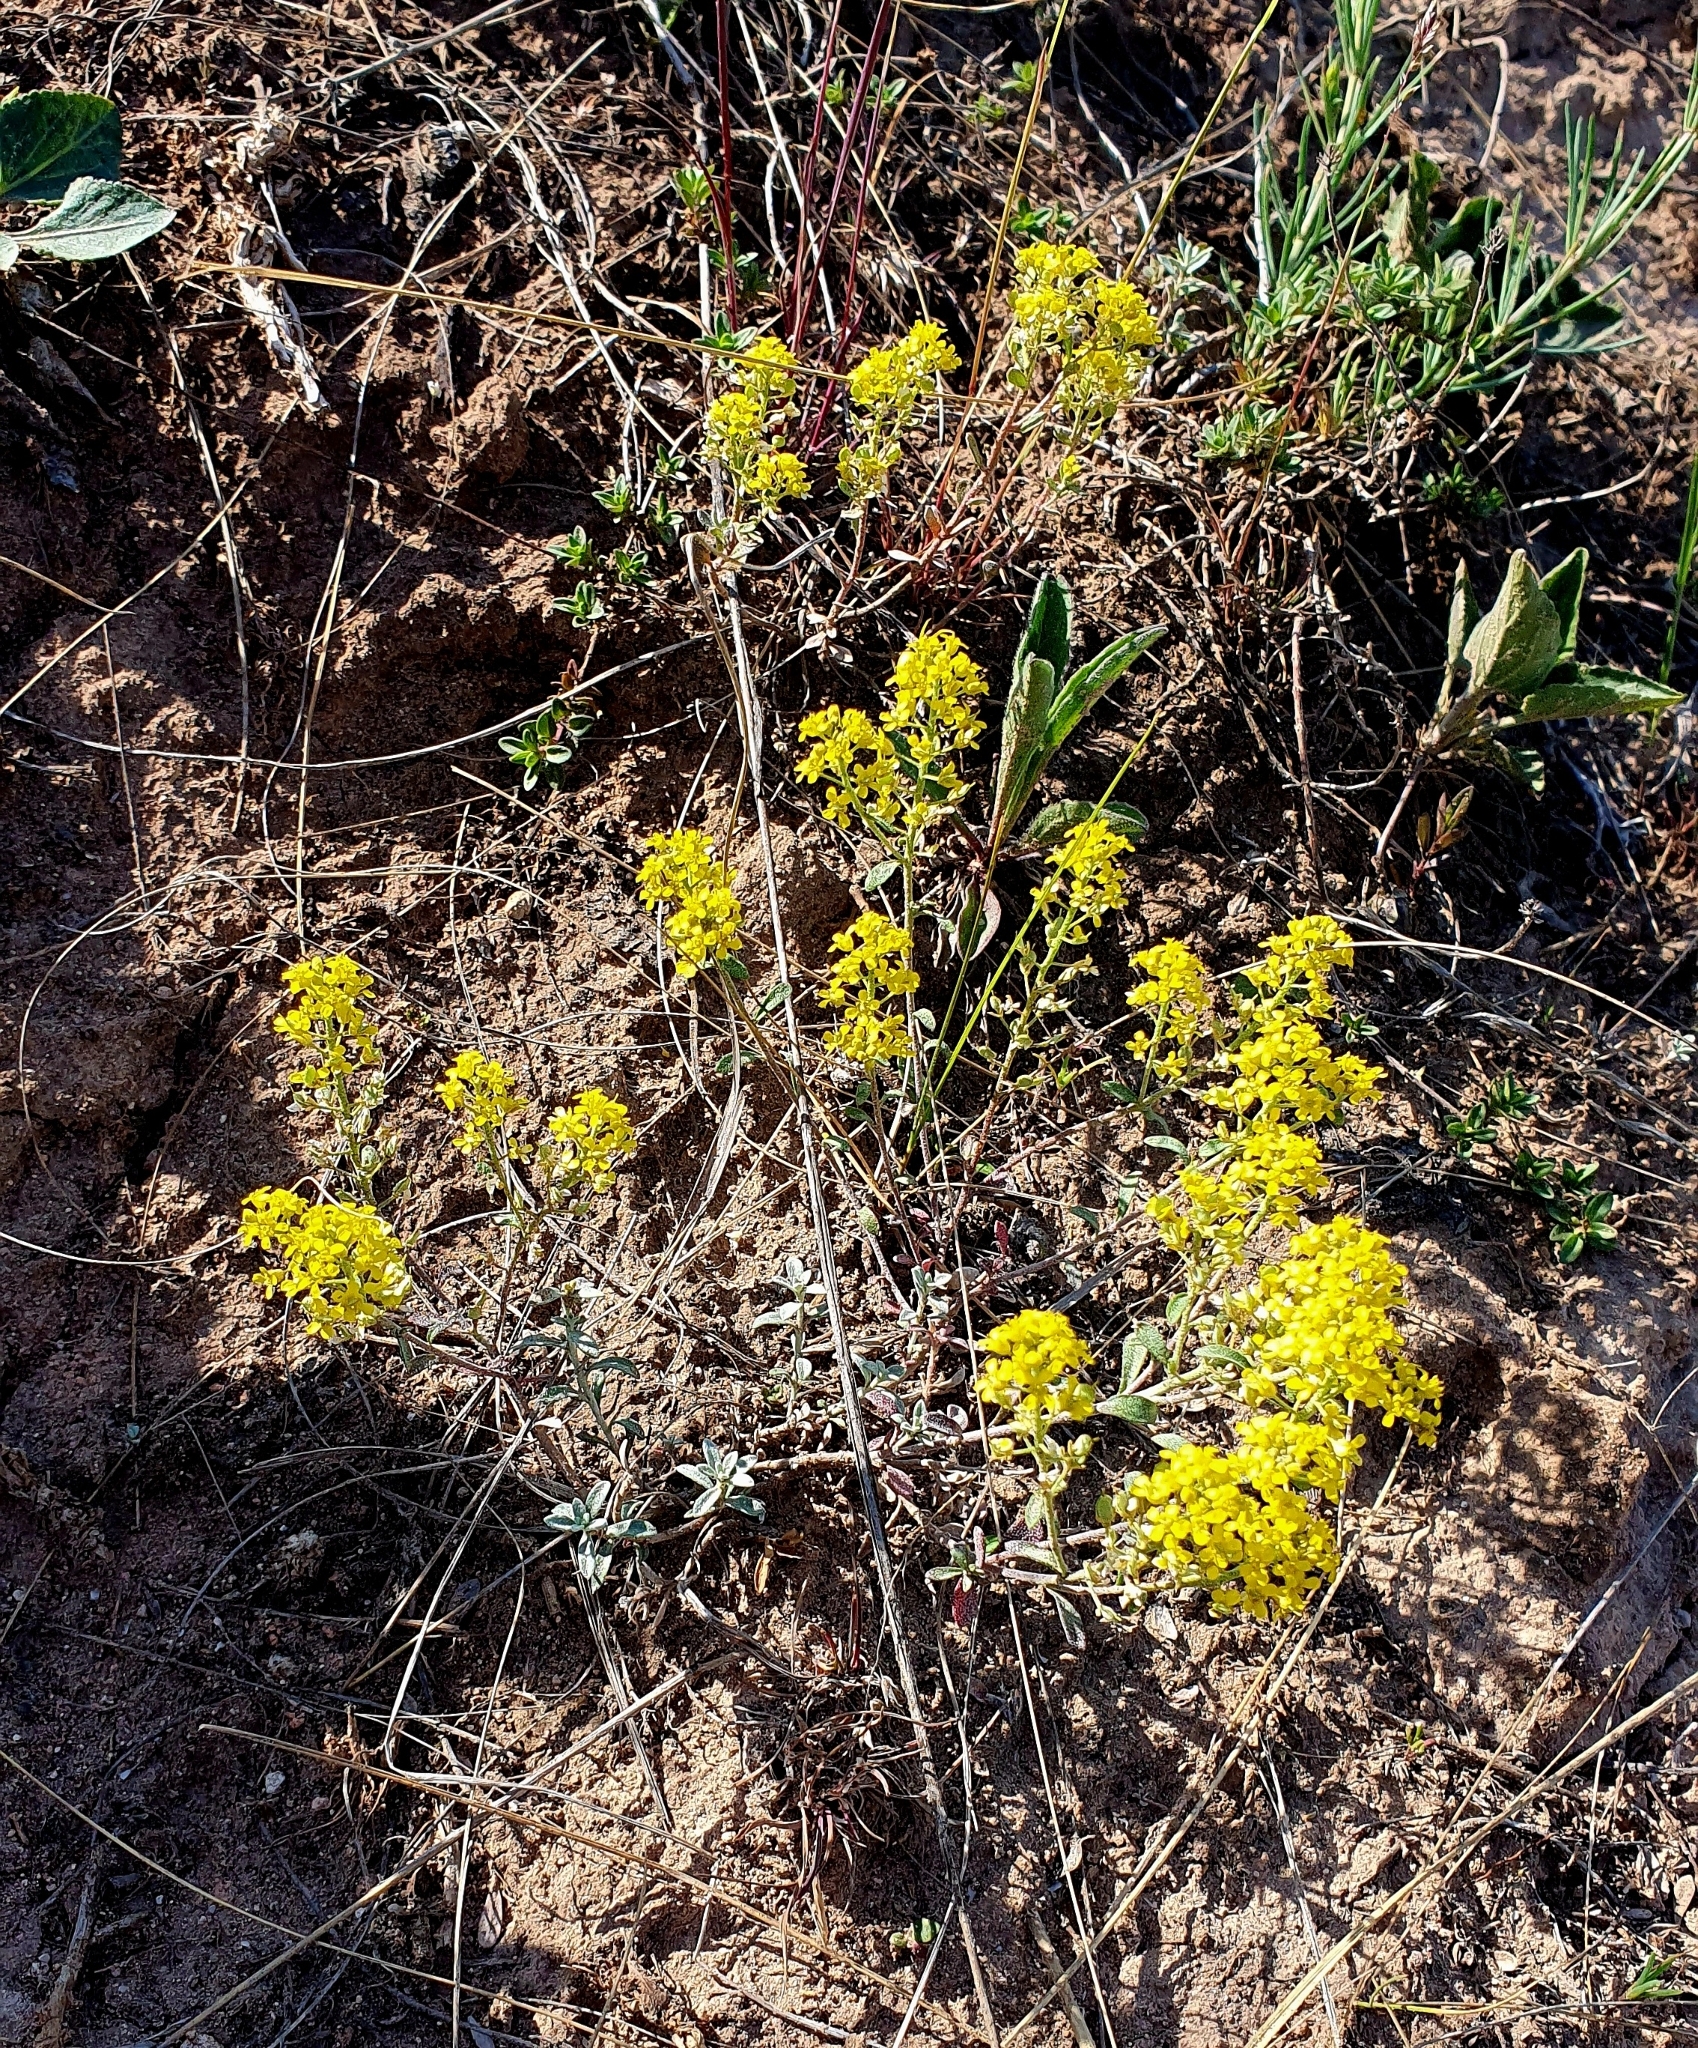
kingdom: Plantae
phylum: Tracheophyta
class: Magnoliopsida
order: Brassicales
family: Brassicaceae
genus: Odontarrhena
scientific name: Odontarrhena tortuosa
